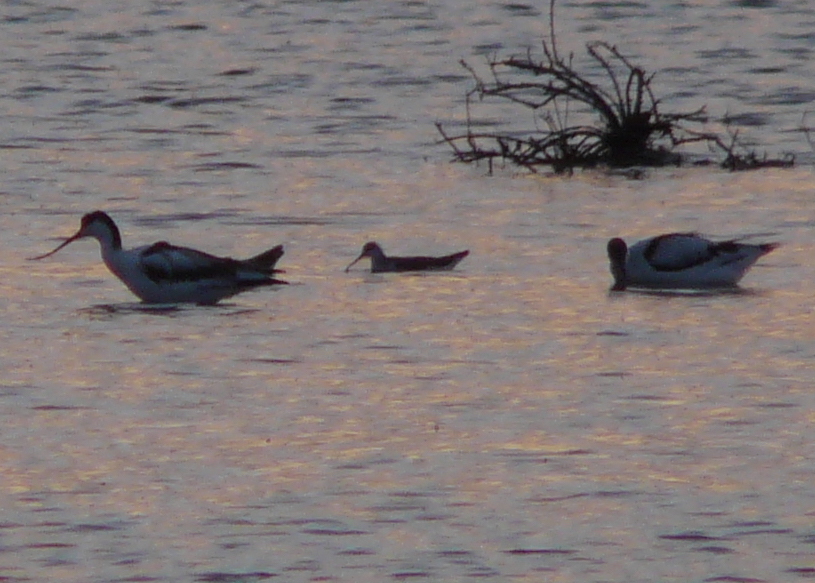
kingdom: Animalia
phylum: Chordata
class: Aves
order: Charadriiformes
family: Scolopacidae
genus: Phalaropus
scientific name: Phalaropus tricolor
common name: Wilson's phalarope
